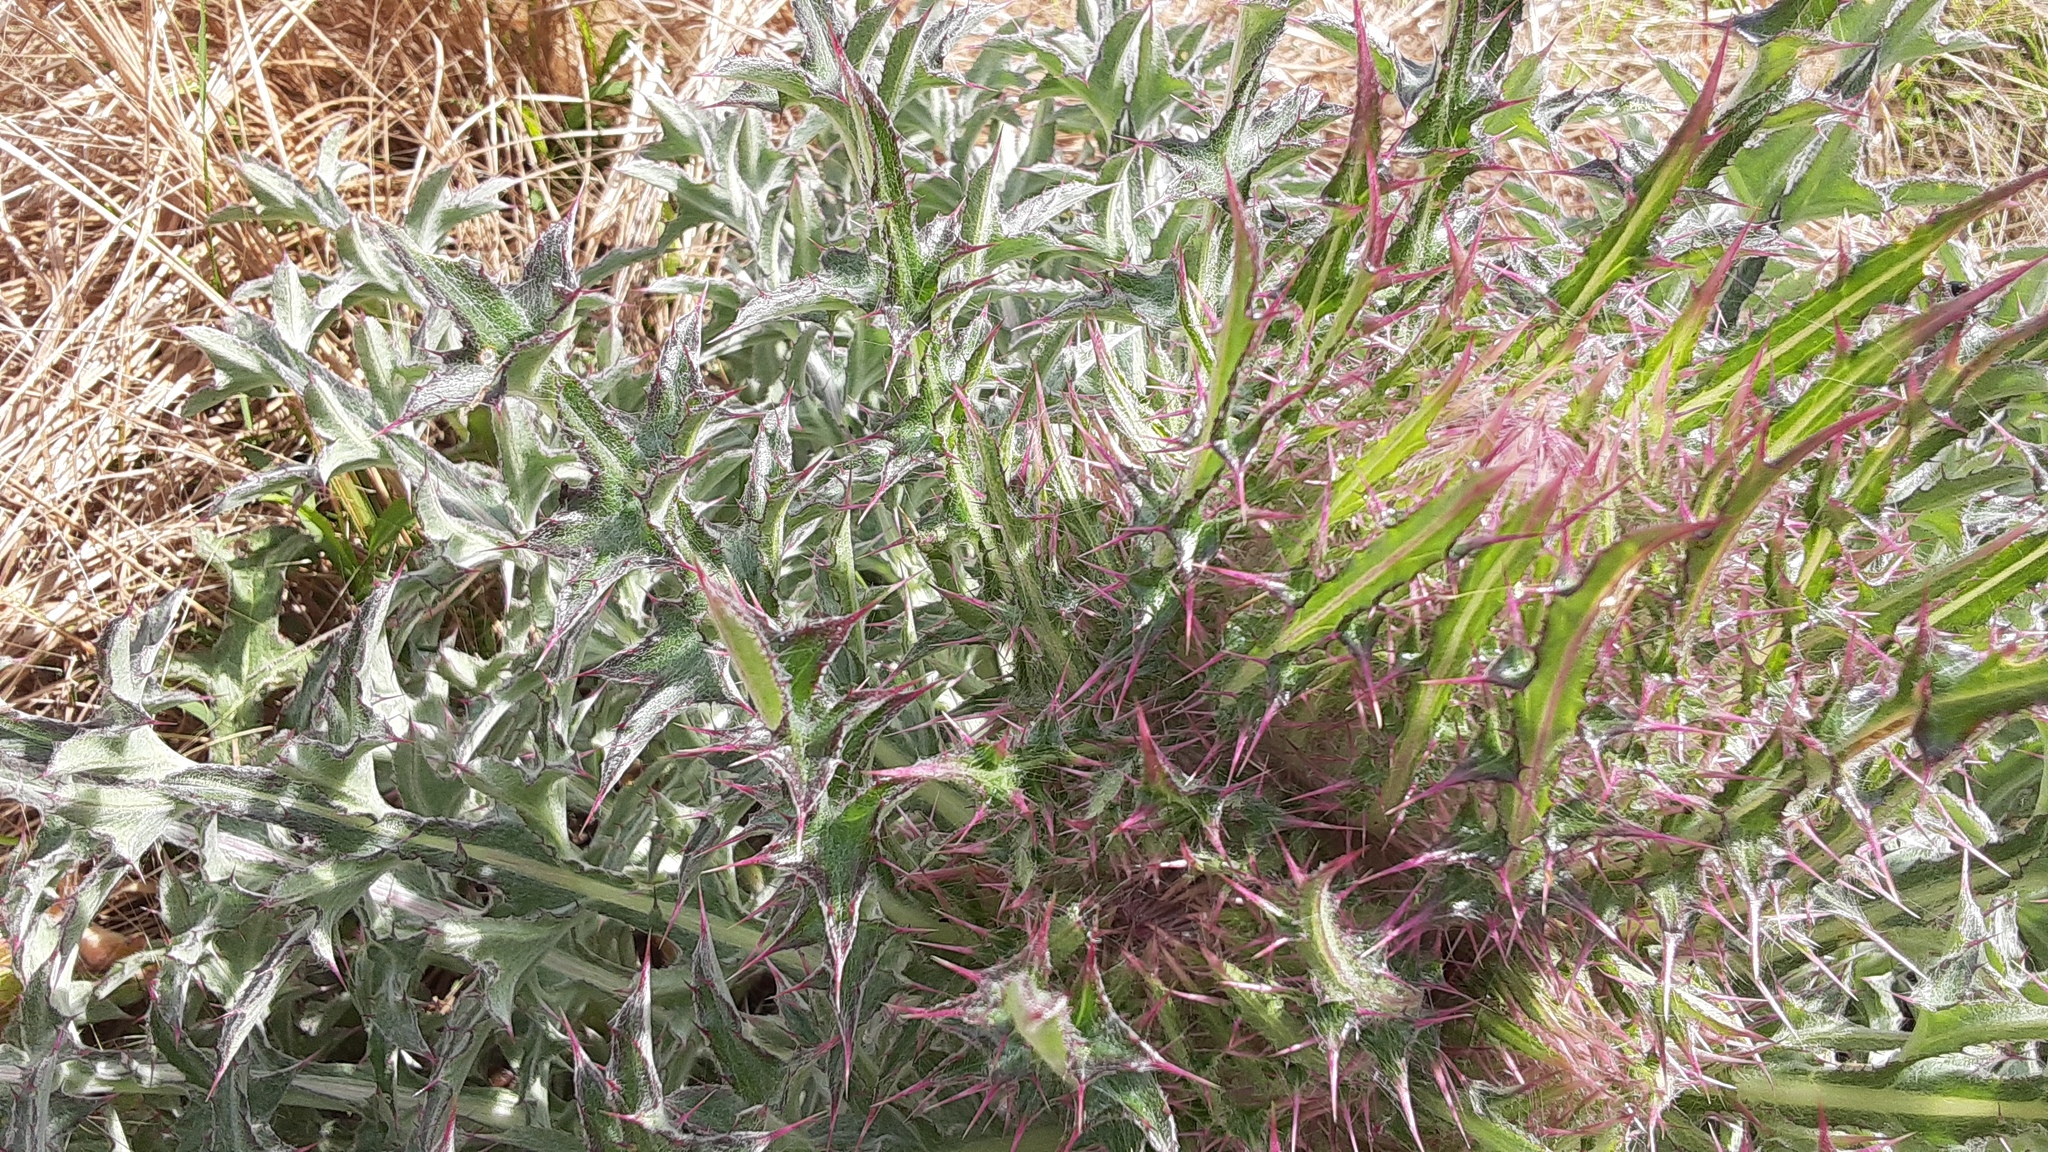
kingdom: Plantae
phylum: Tracheophyta
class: Magnoliopsida
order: Asterales
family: Asteraceae
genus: Cirsium
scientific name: Cirsium horridulum
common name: Bristly thistle
